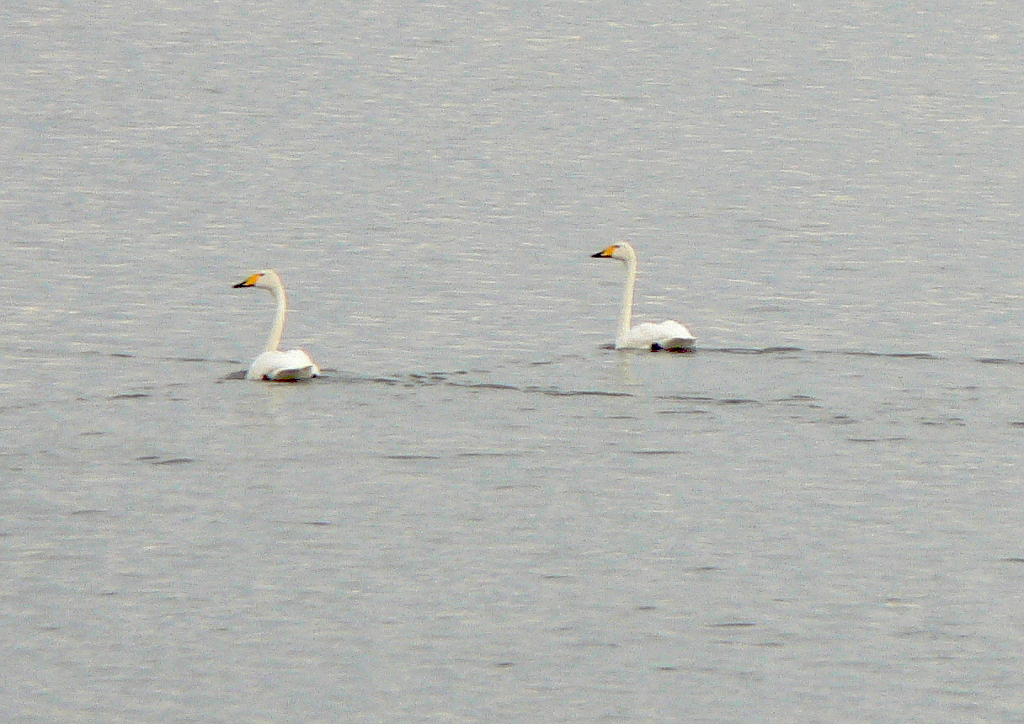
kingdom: Animalia
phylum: Chordata
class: Aves
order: Anseriformes
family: Anatidae
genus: Cygnus
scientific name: Cygnus cygnus
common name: Whooper swan
